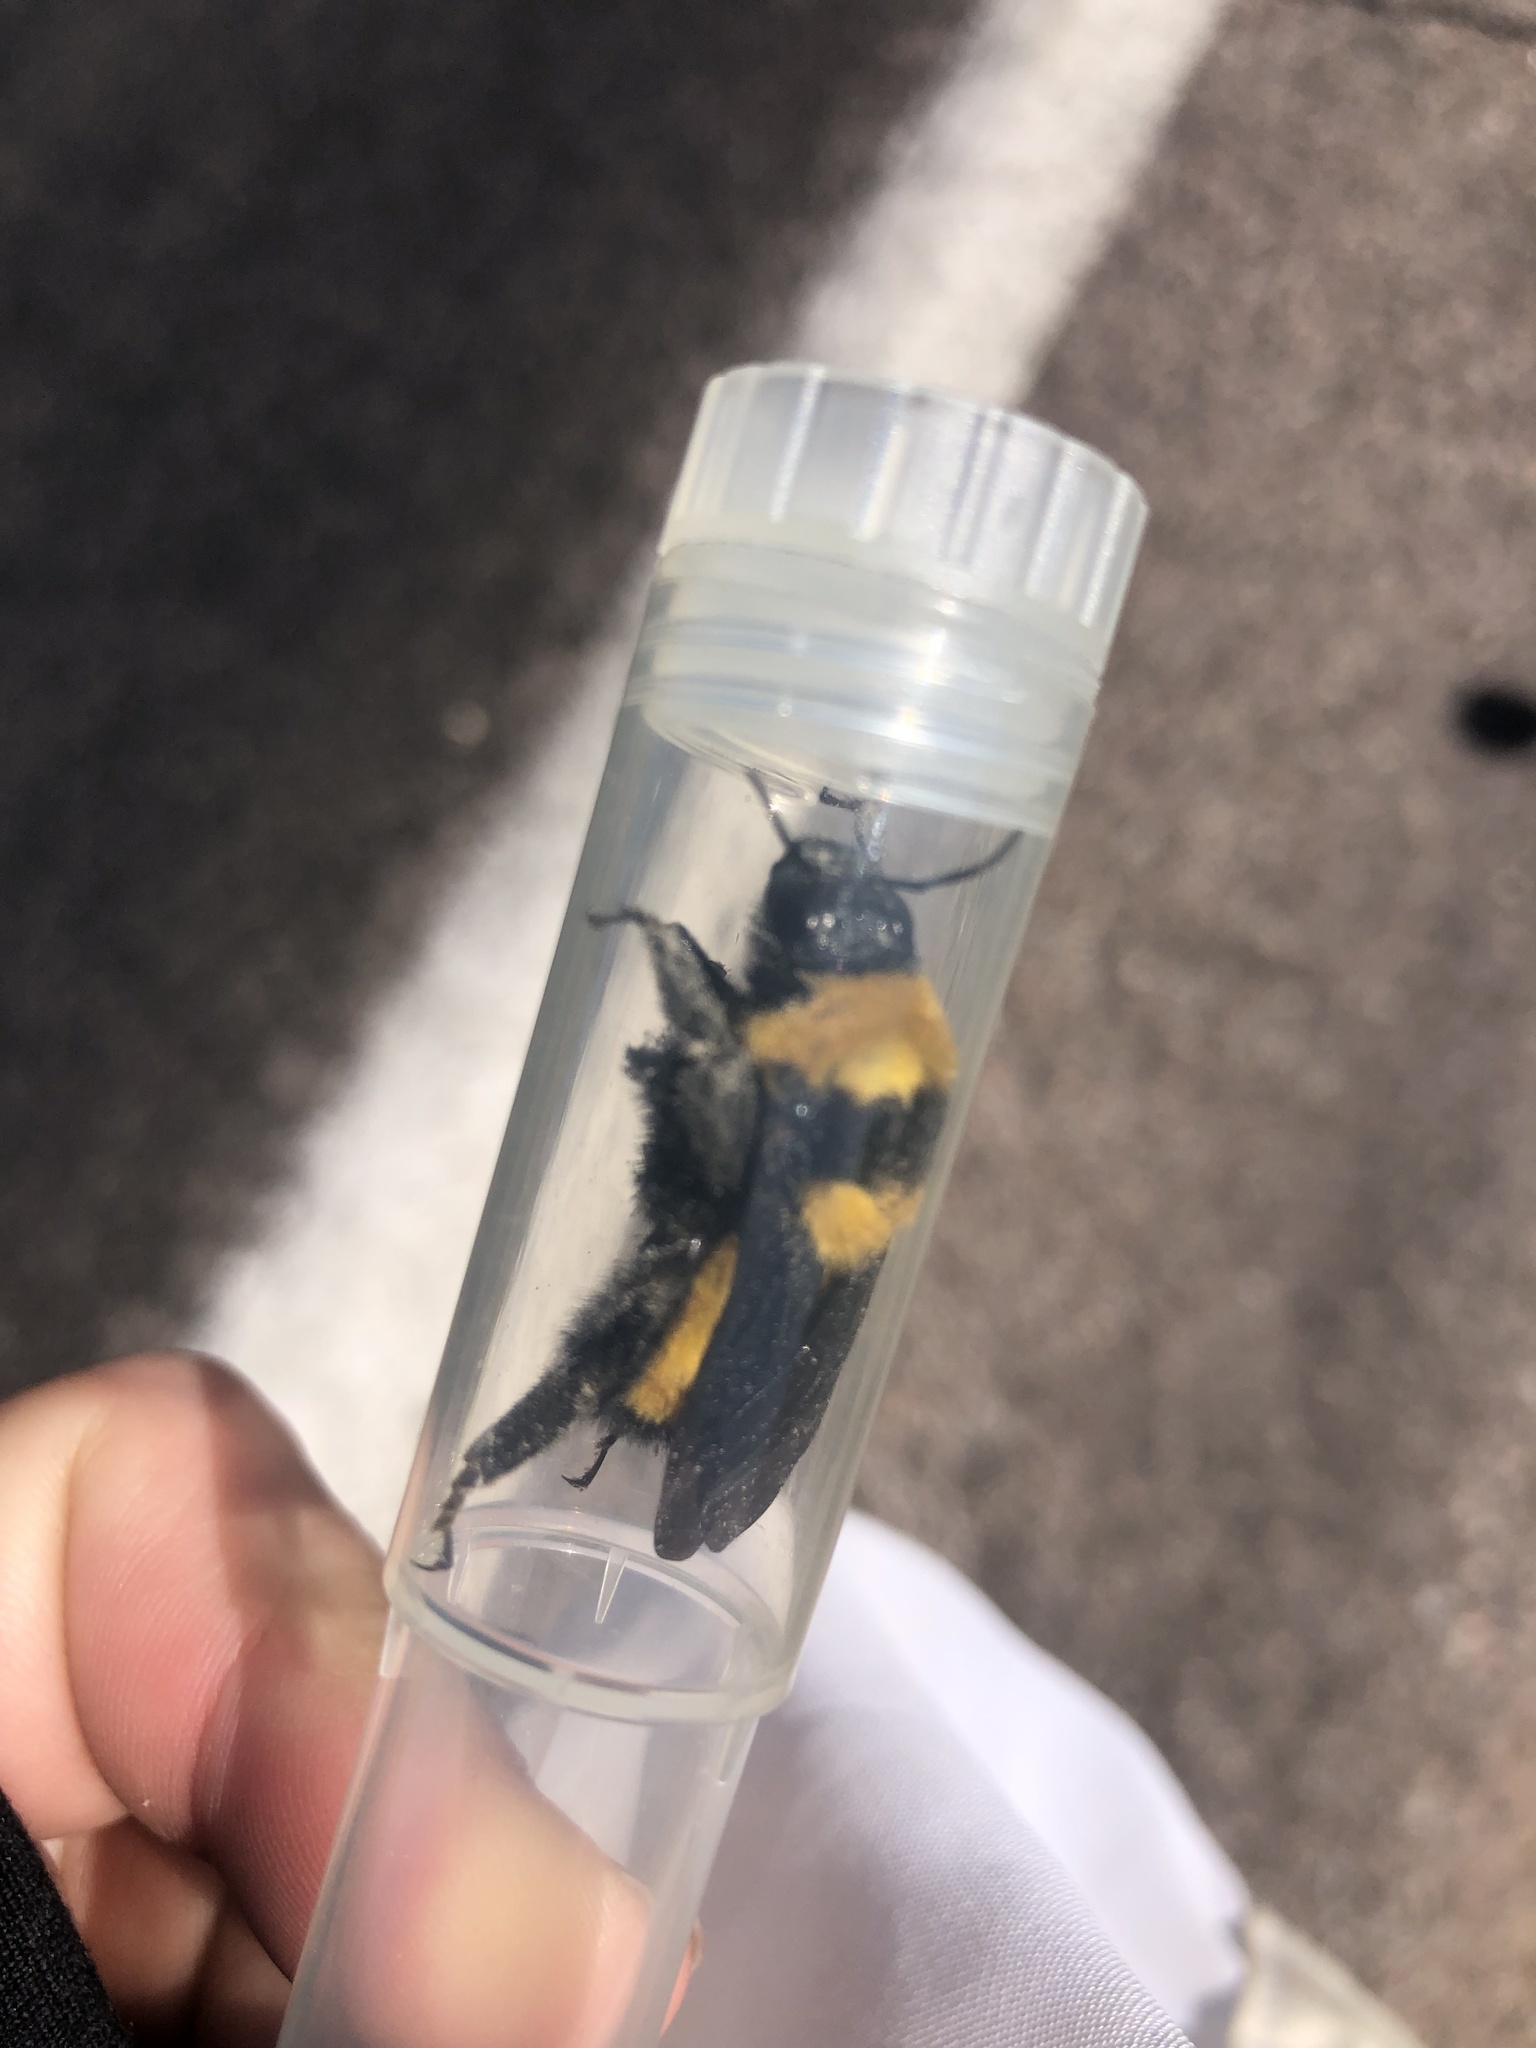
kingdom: Animalia
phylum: Arthropoda
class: Insecta
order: Hymenoptera
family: Apidae
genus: Bombus
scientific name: Bombus sonorus
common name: Sonoran bumble bee
